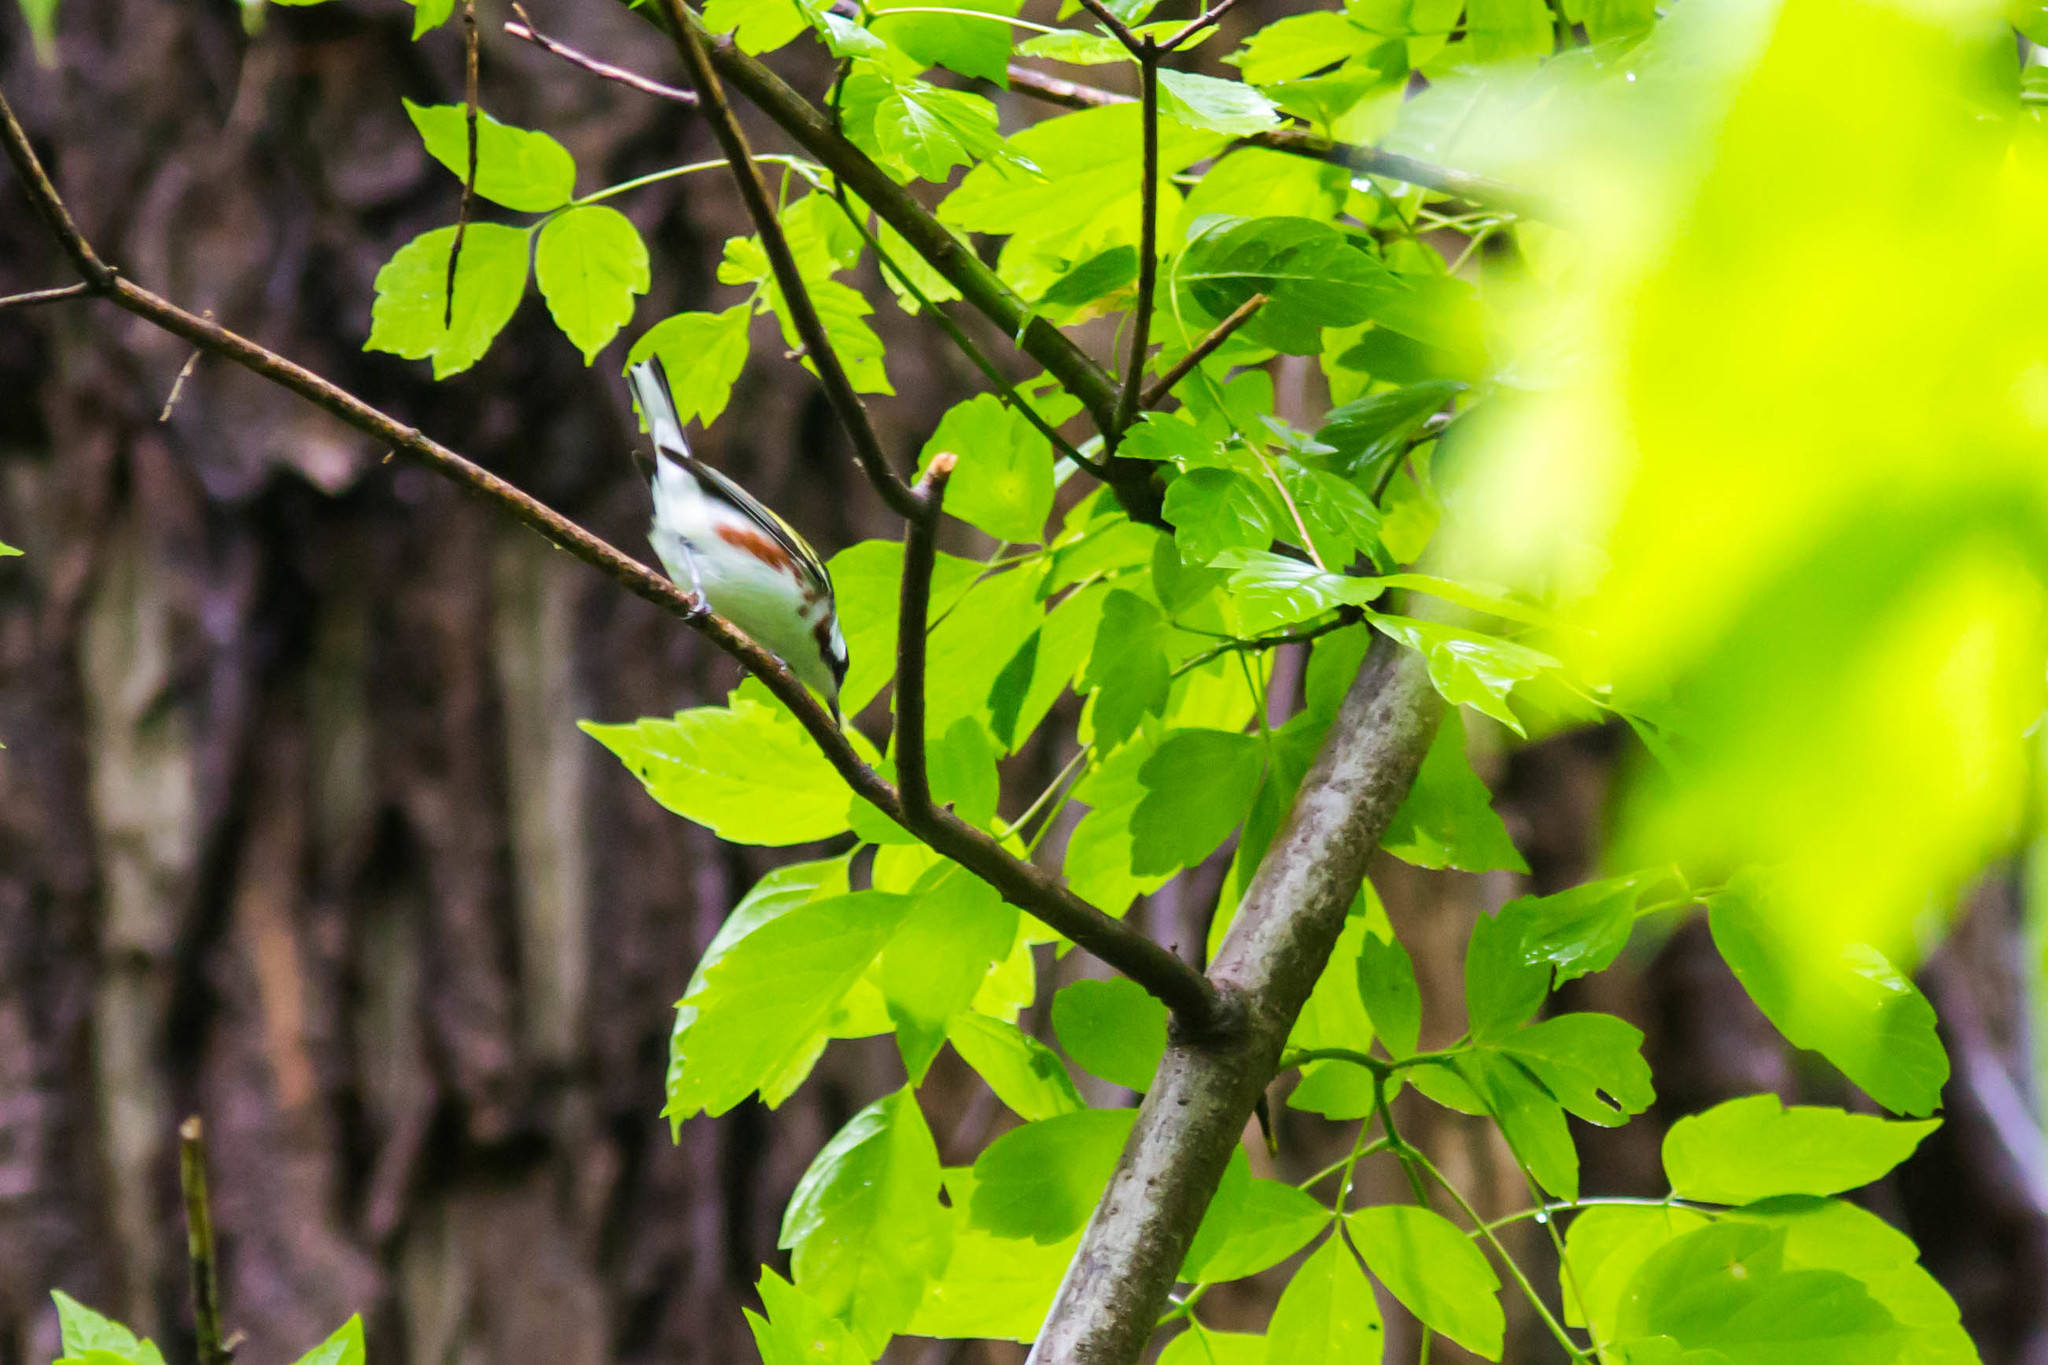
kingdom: Animalia
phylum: Chordata
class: Aves
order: Passeriformes
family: Parulidae
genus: Setophaga
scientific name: Setophaga pensylvanica
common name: Chestnut-sided warbler
